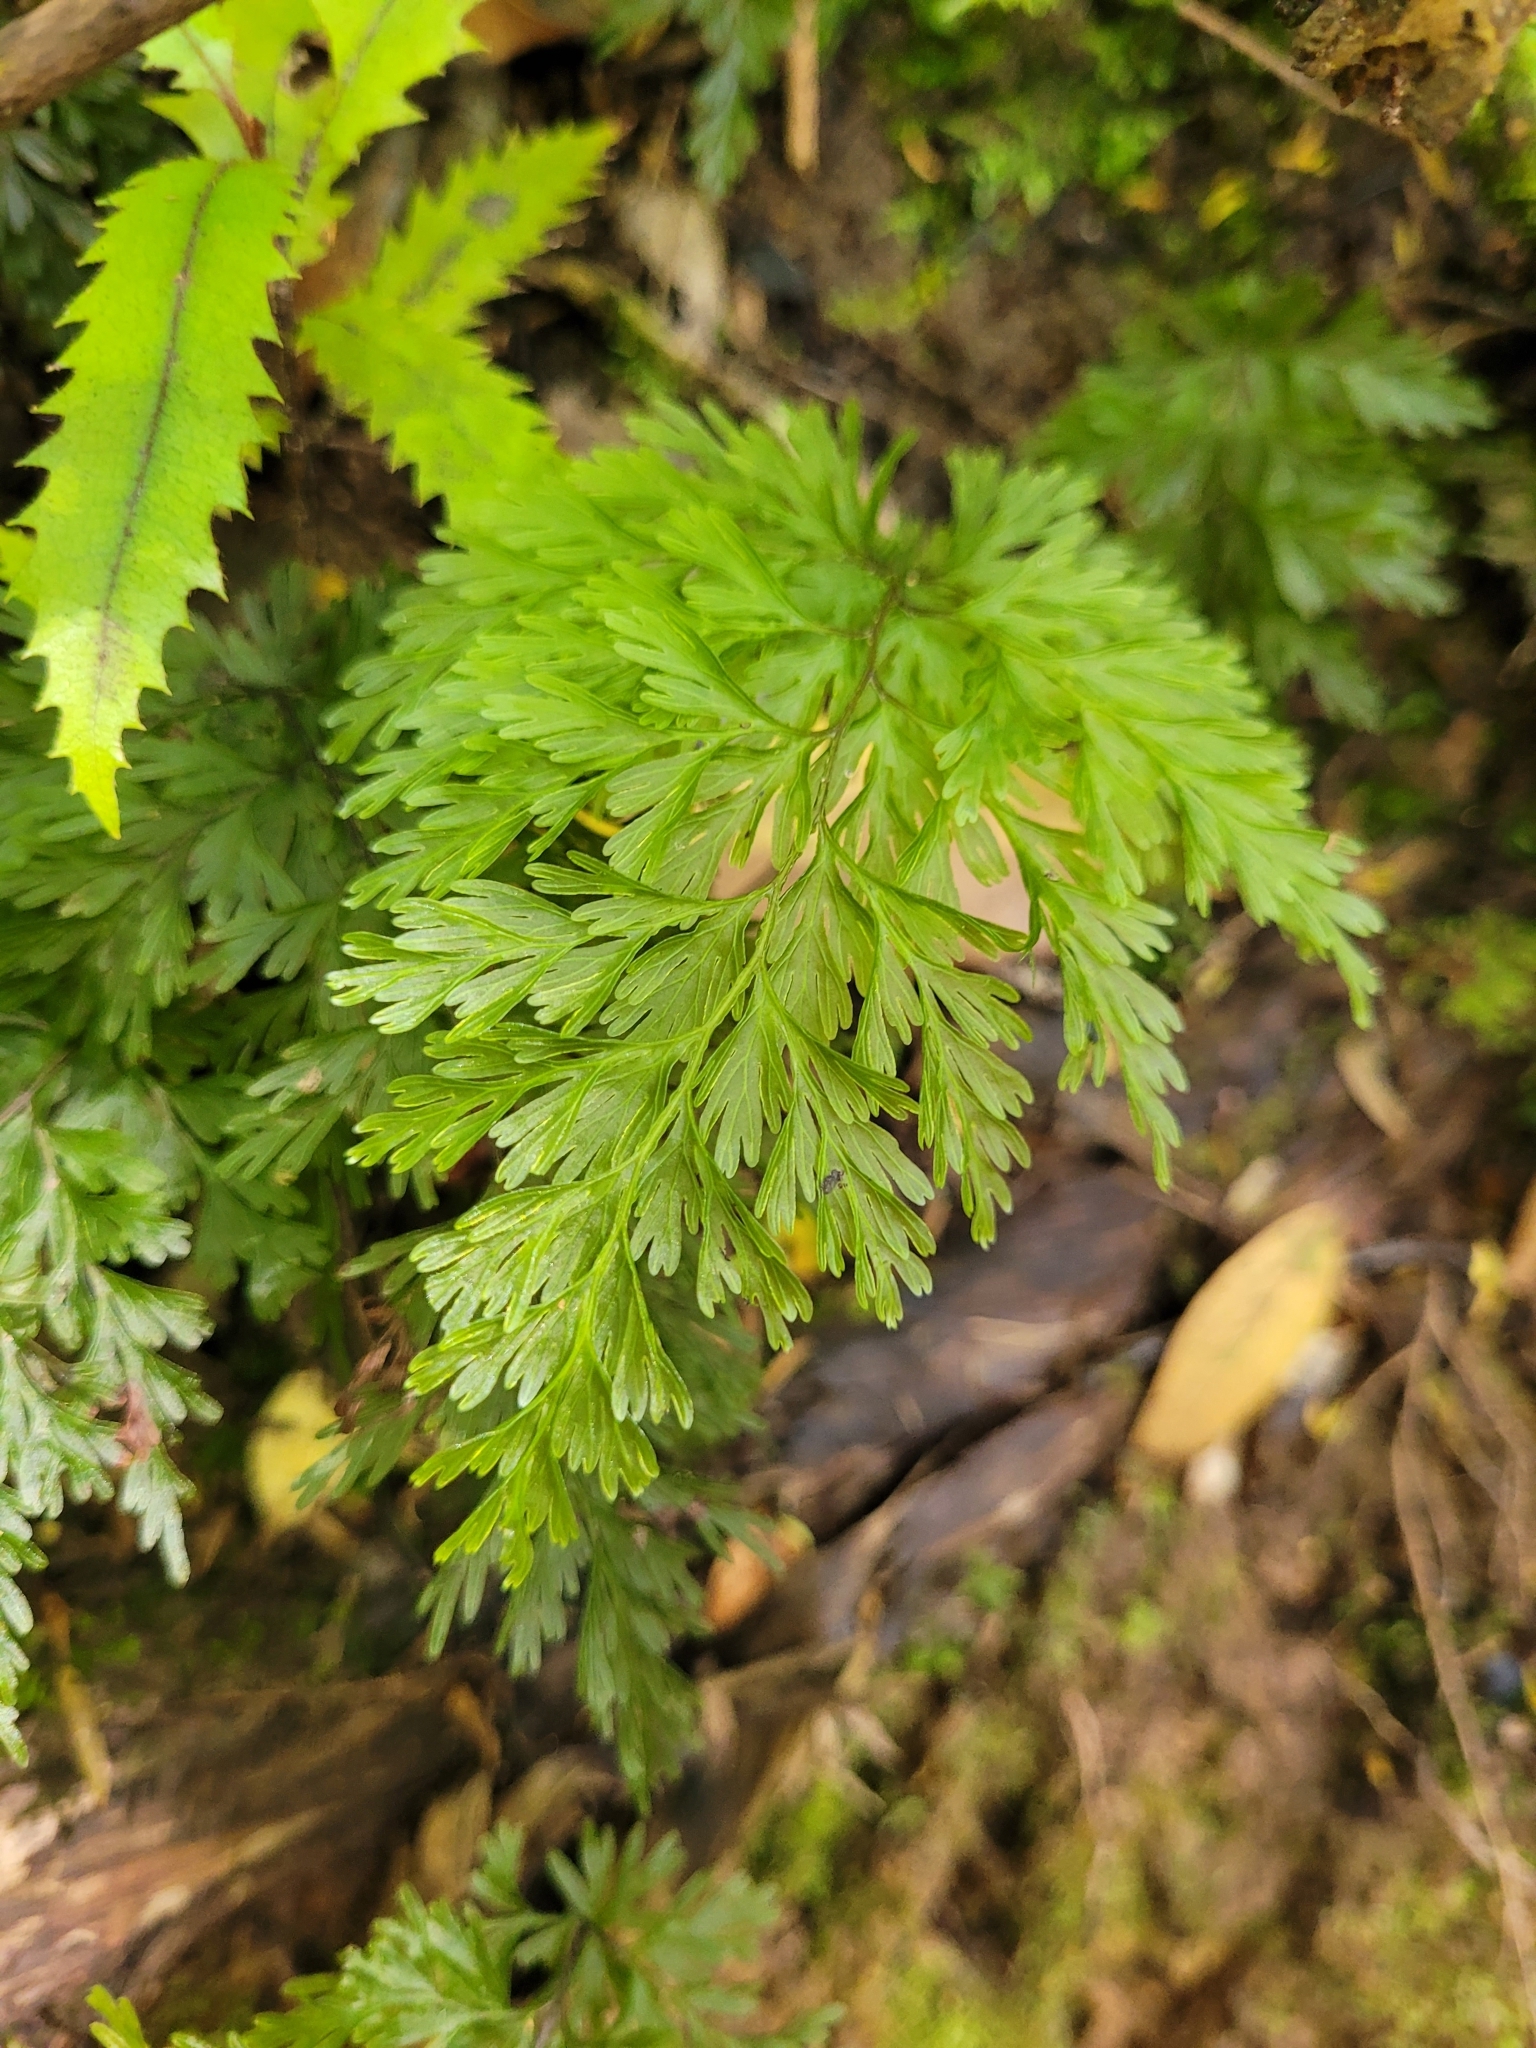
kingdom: Plantae
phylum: Tracheophyta
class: Polypodiopsida
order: Hymenophyllales
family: Hymenophyllaceae
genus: Hymenophyllum
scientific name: Hymenophyllum demissum
